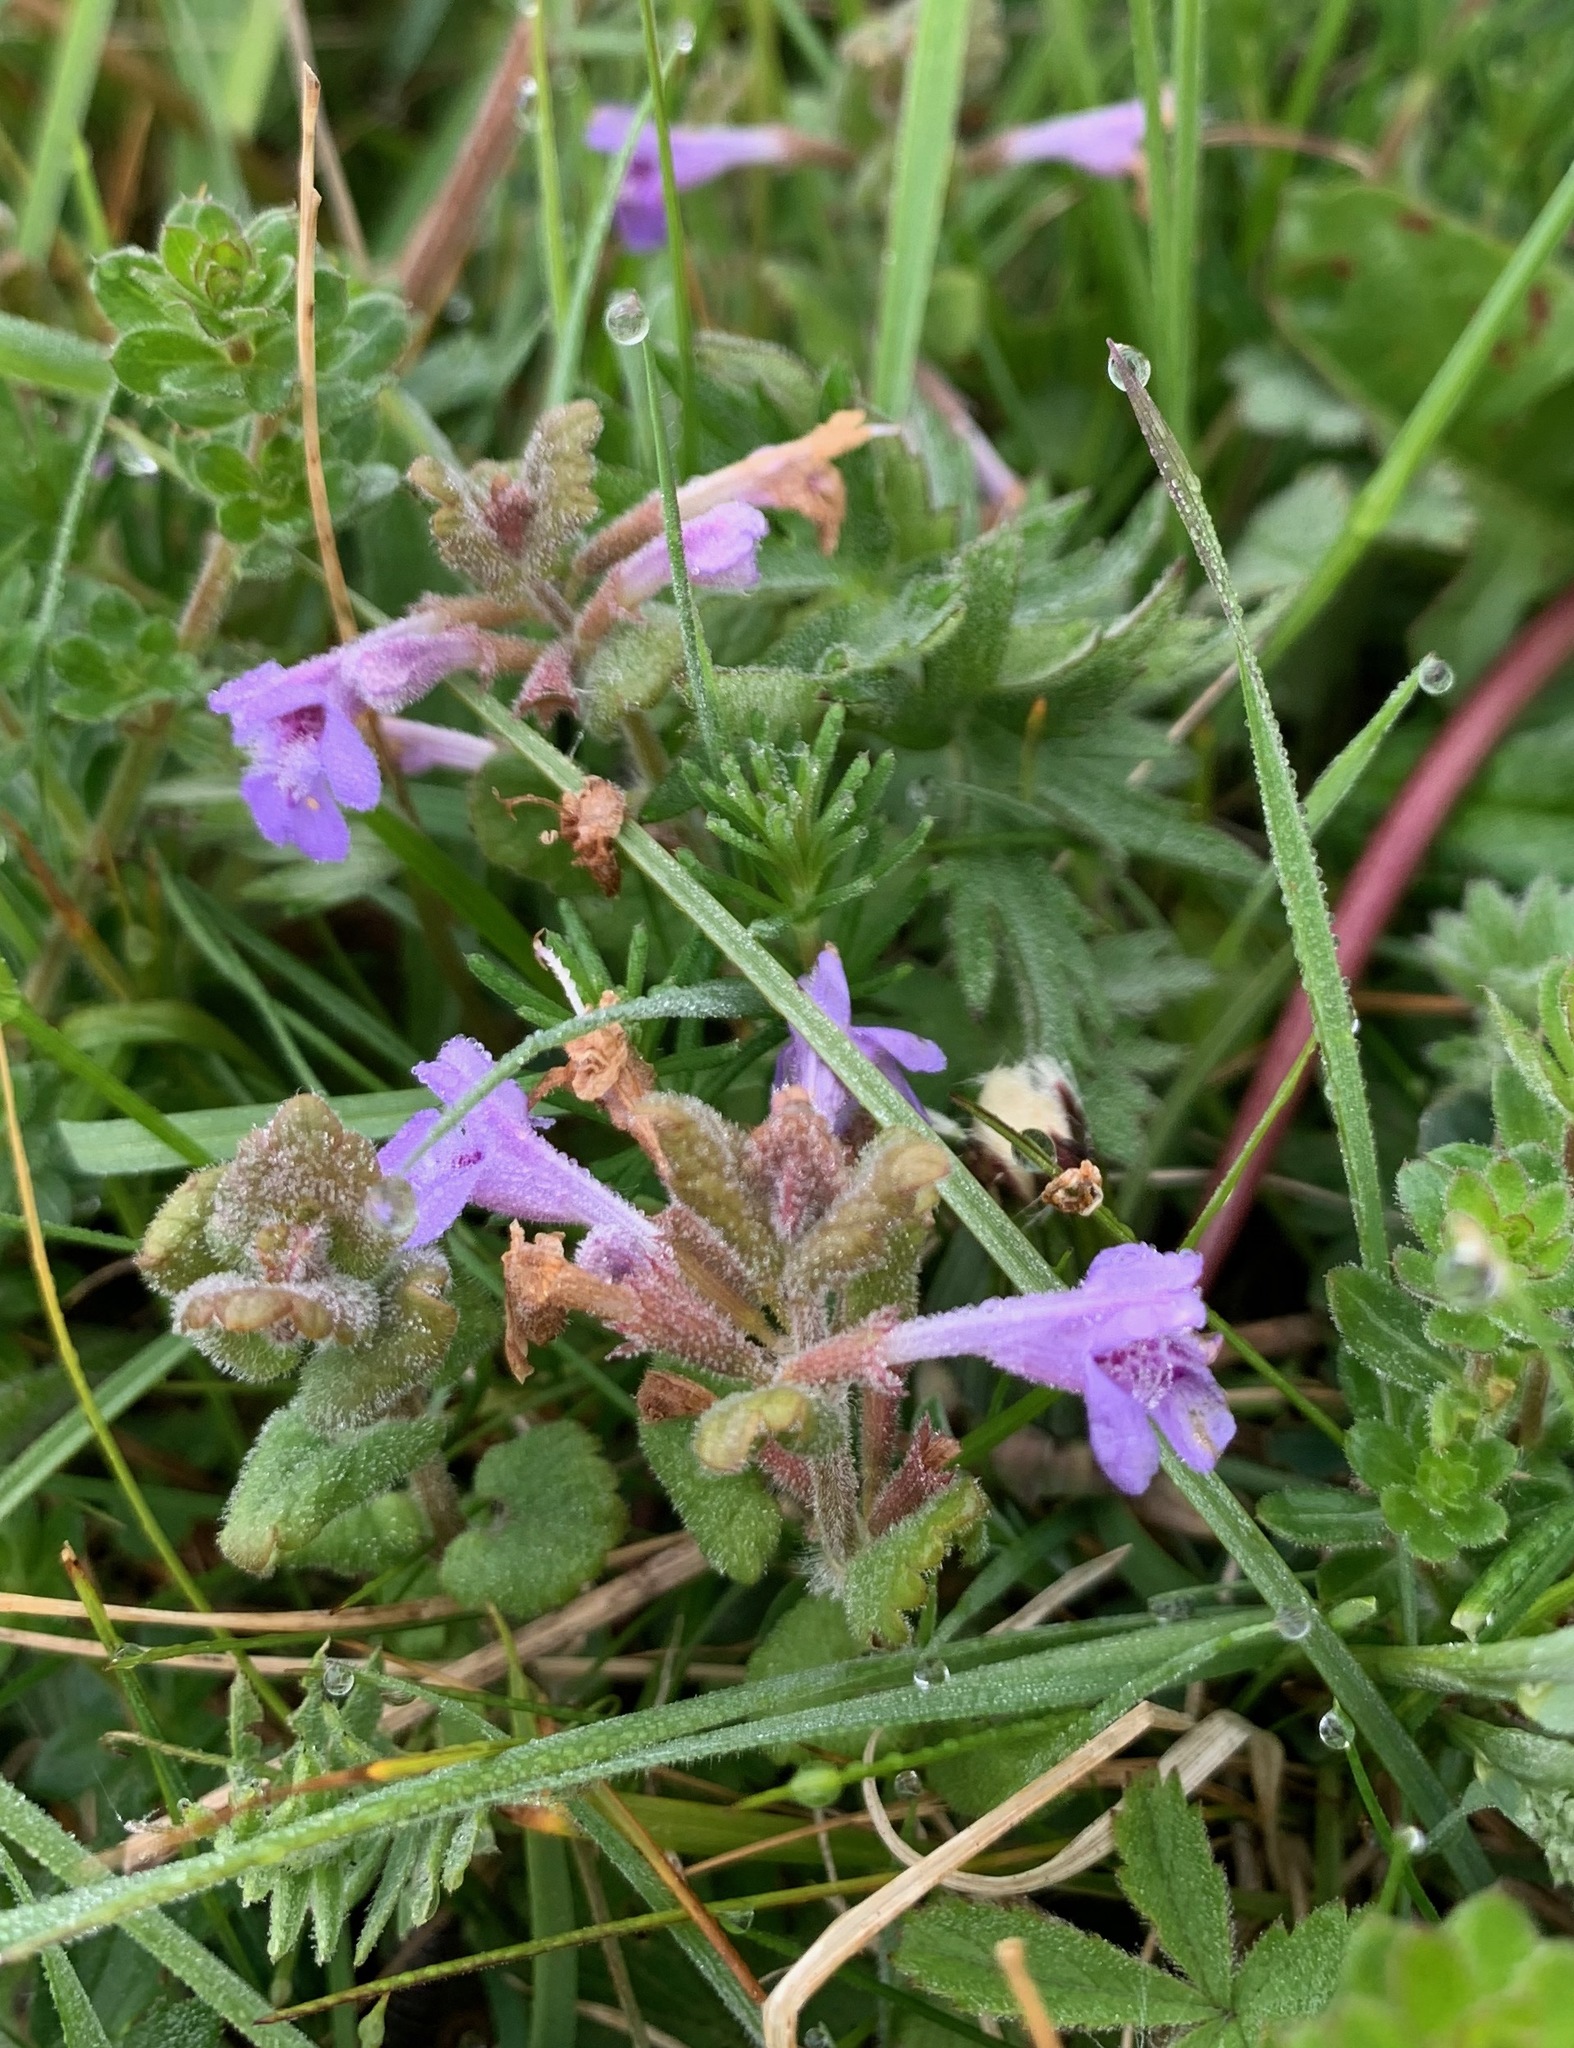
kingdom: Plantae
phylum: Tracheophyta
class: Magnoliopsida
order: Lamiales
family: Lamiaceae
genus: Glechoma
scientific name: Glechoma hederacea
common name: Ground ivy
